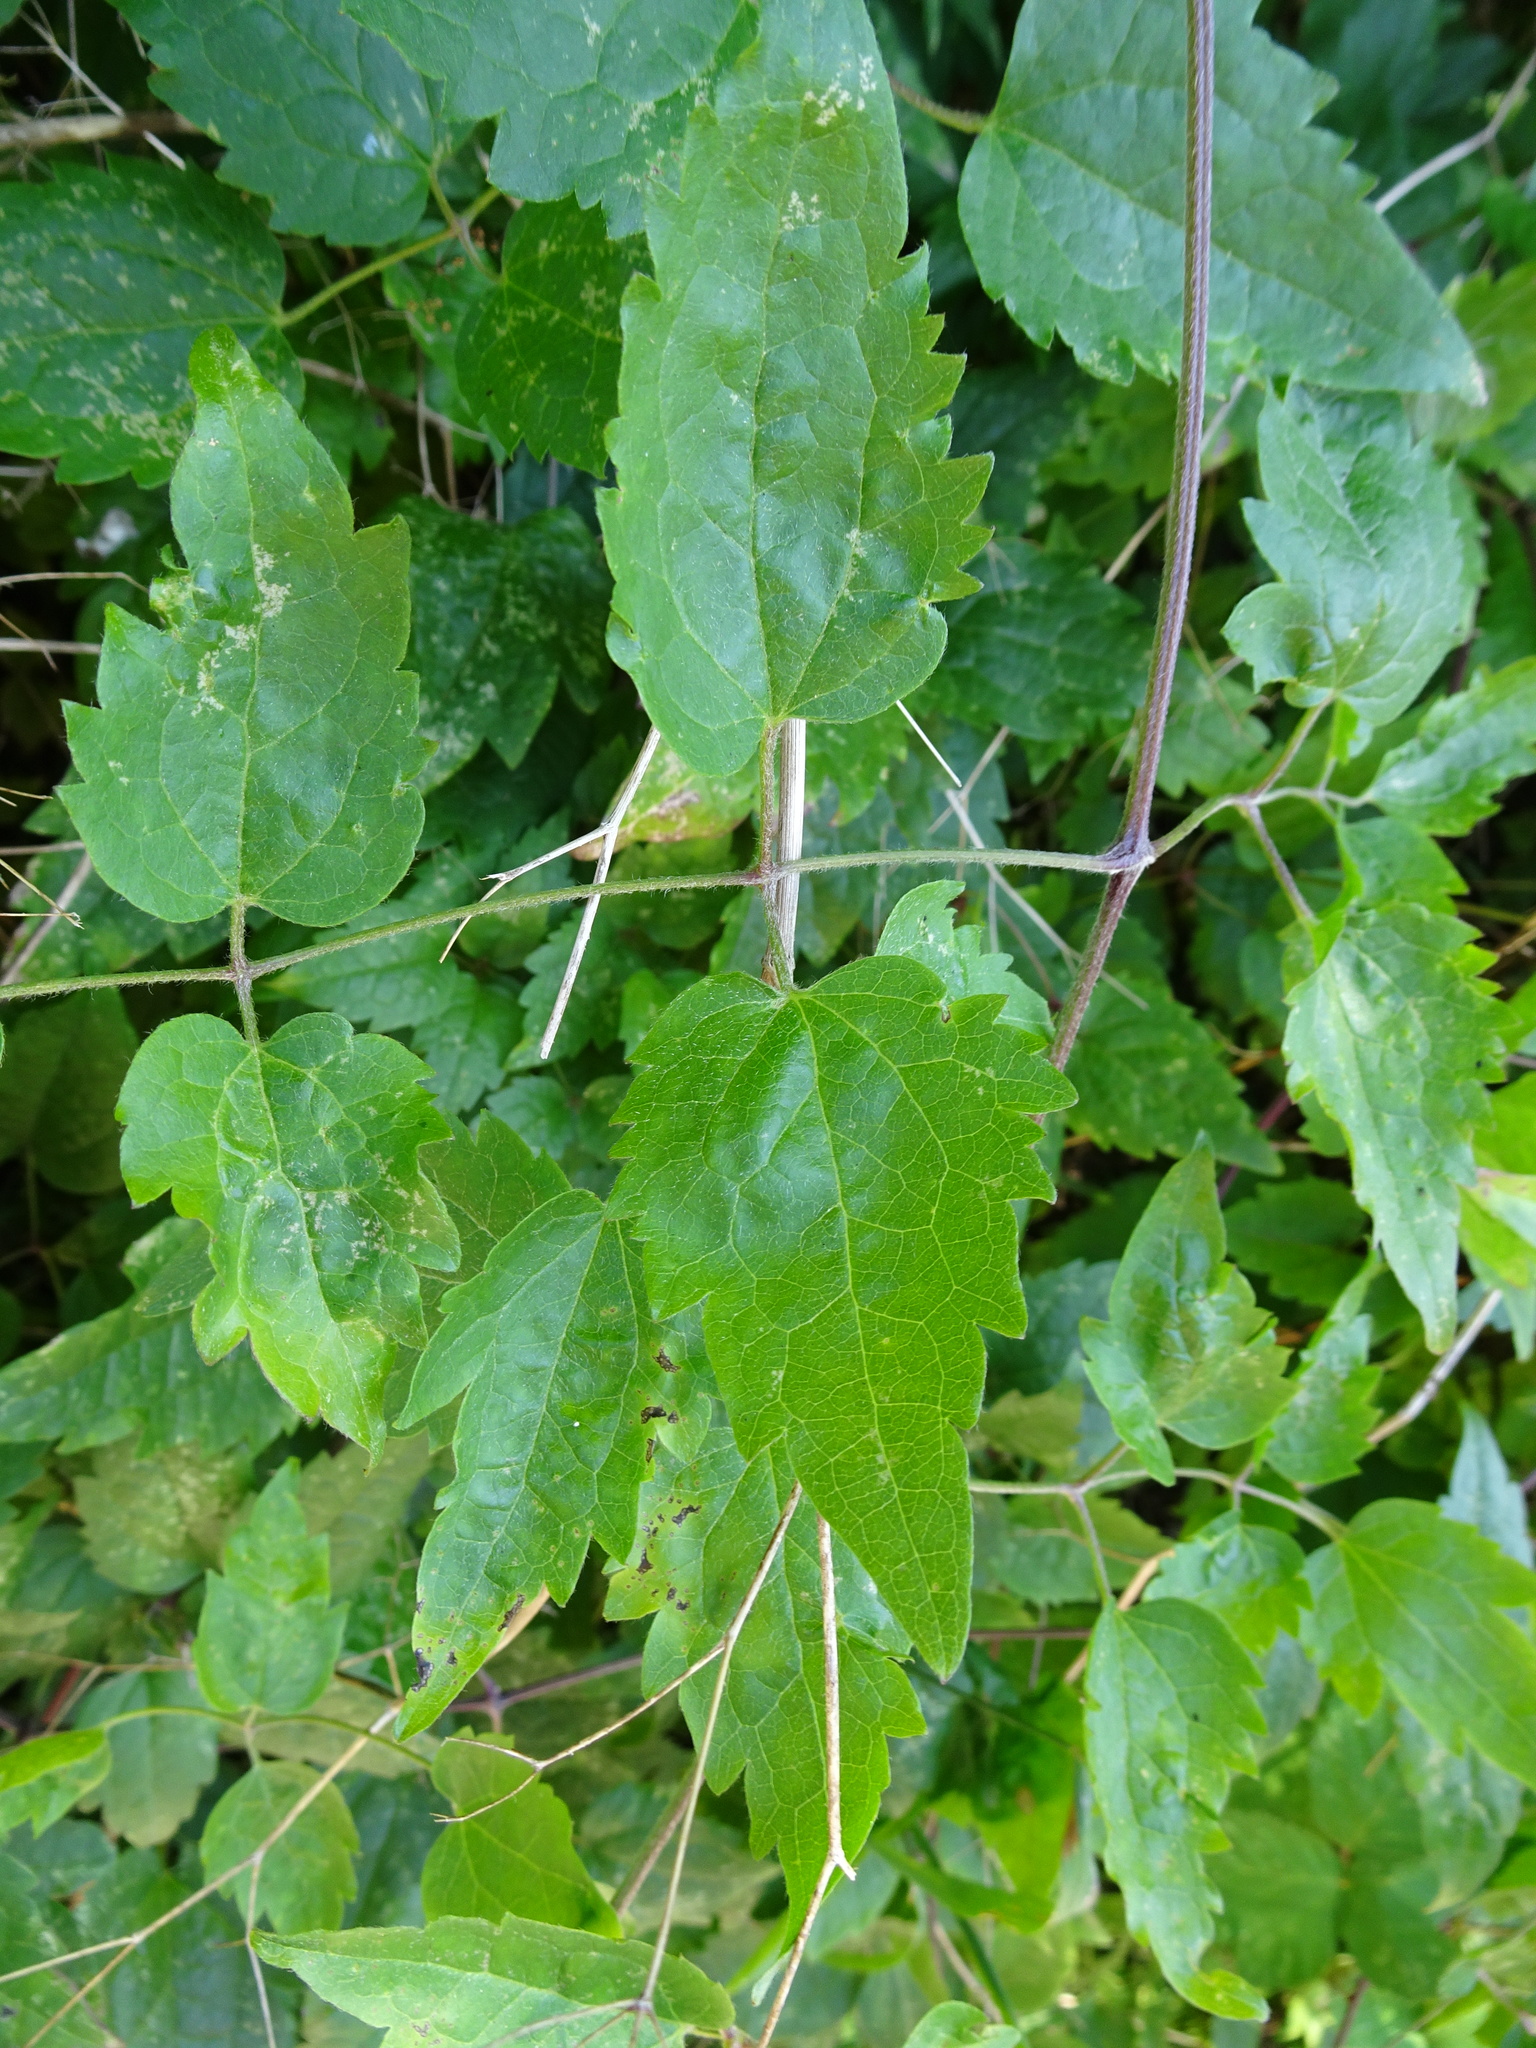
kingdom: Plantae
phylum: Tracheophyta
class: Magnoliopsida
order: Ranunculales
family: Ranunculaceae
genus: Clematis
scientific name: Clematis vitalba
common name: Evergreen clematis
